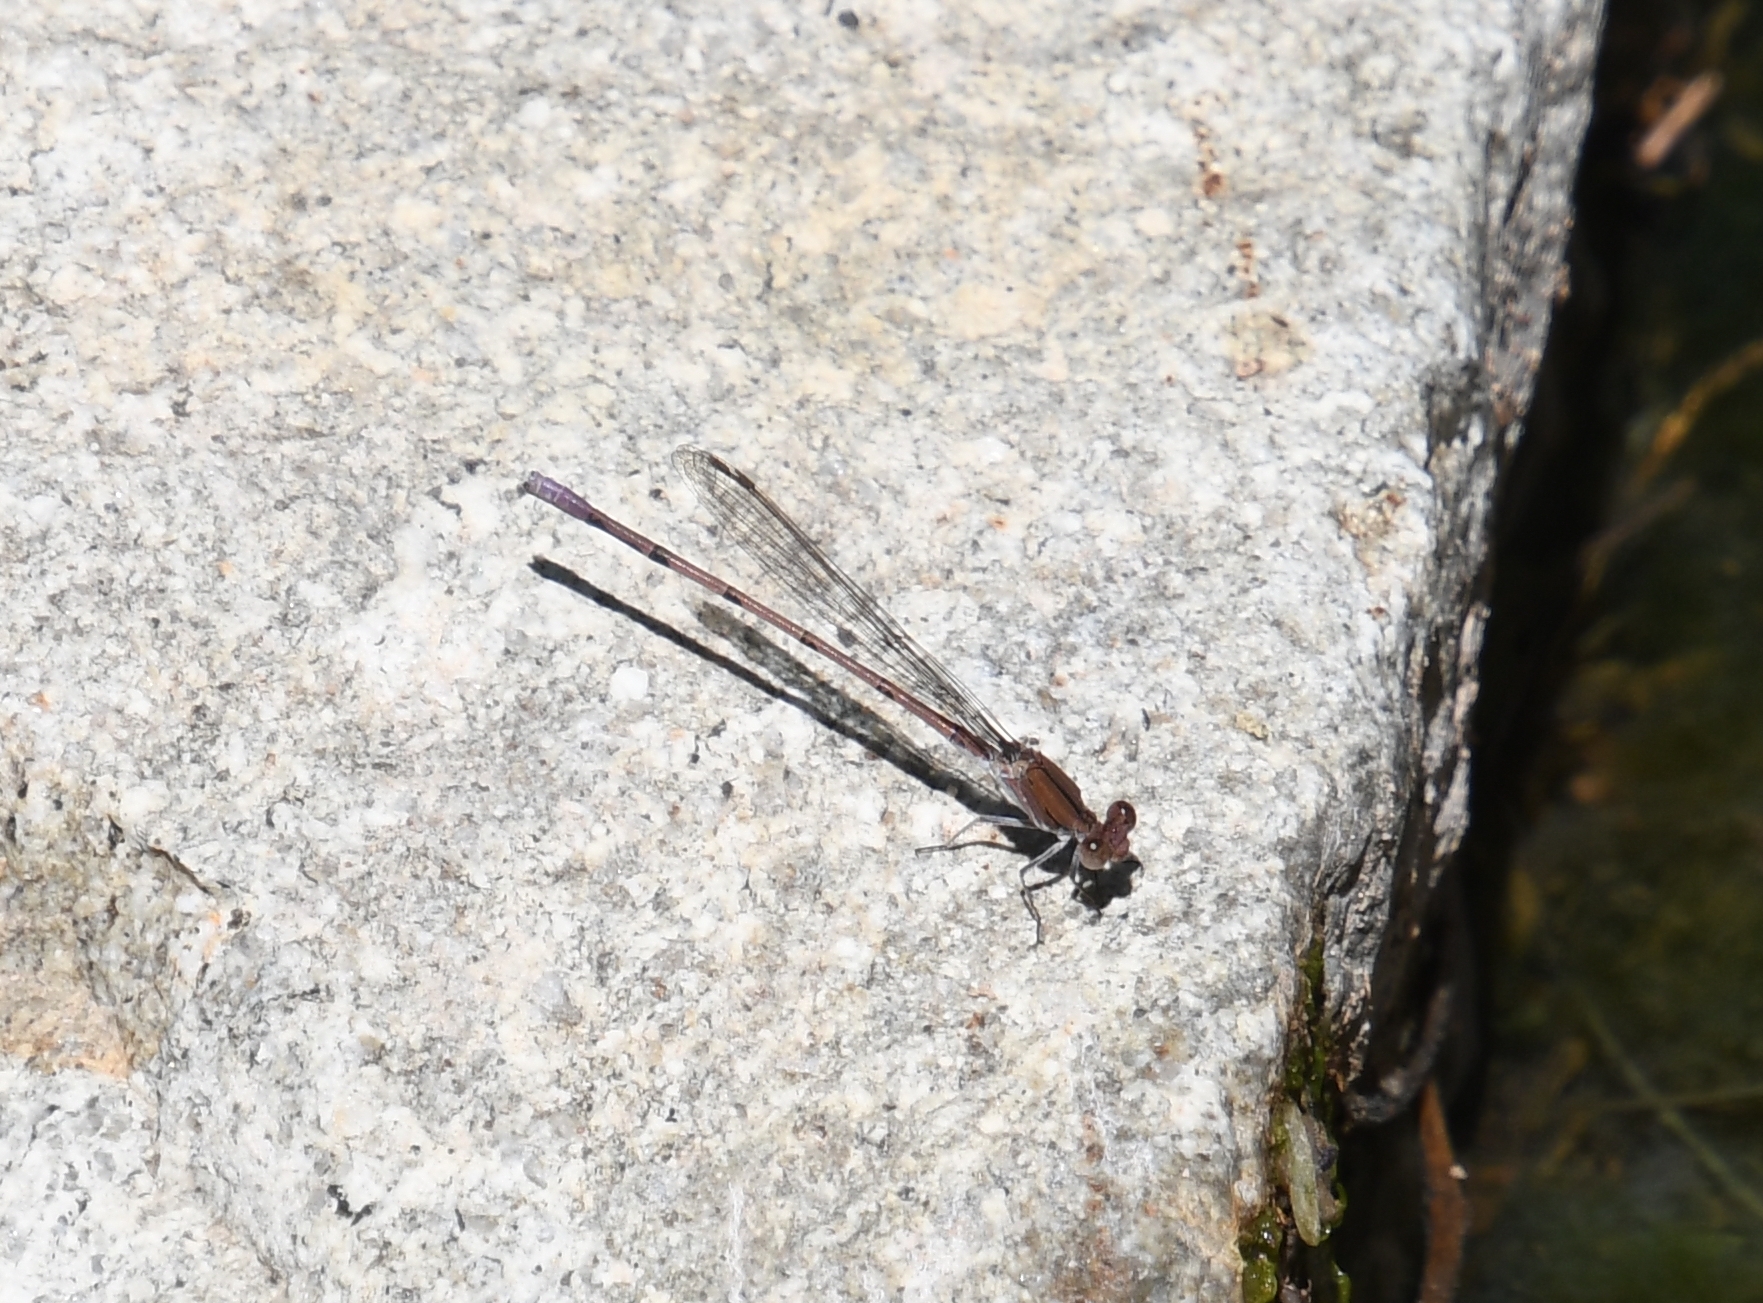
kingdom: Animalia
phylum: Arthropoda
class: Insecta
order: Odonata
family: Coenagrionidae
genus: Argia
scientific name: Argia pallens
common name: Amethyst dancer
